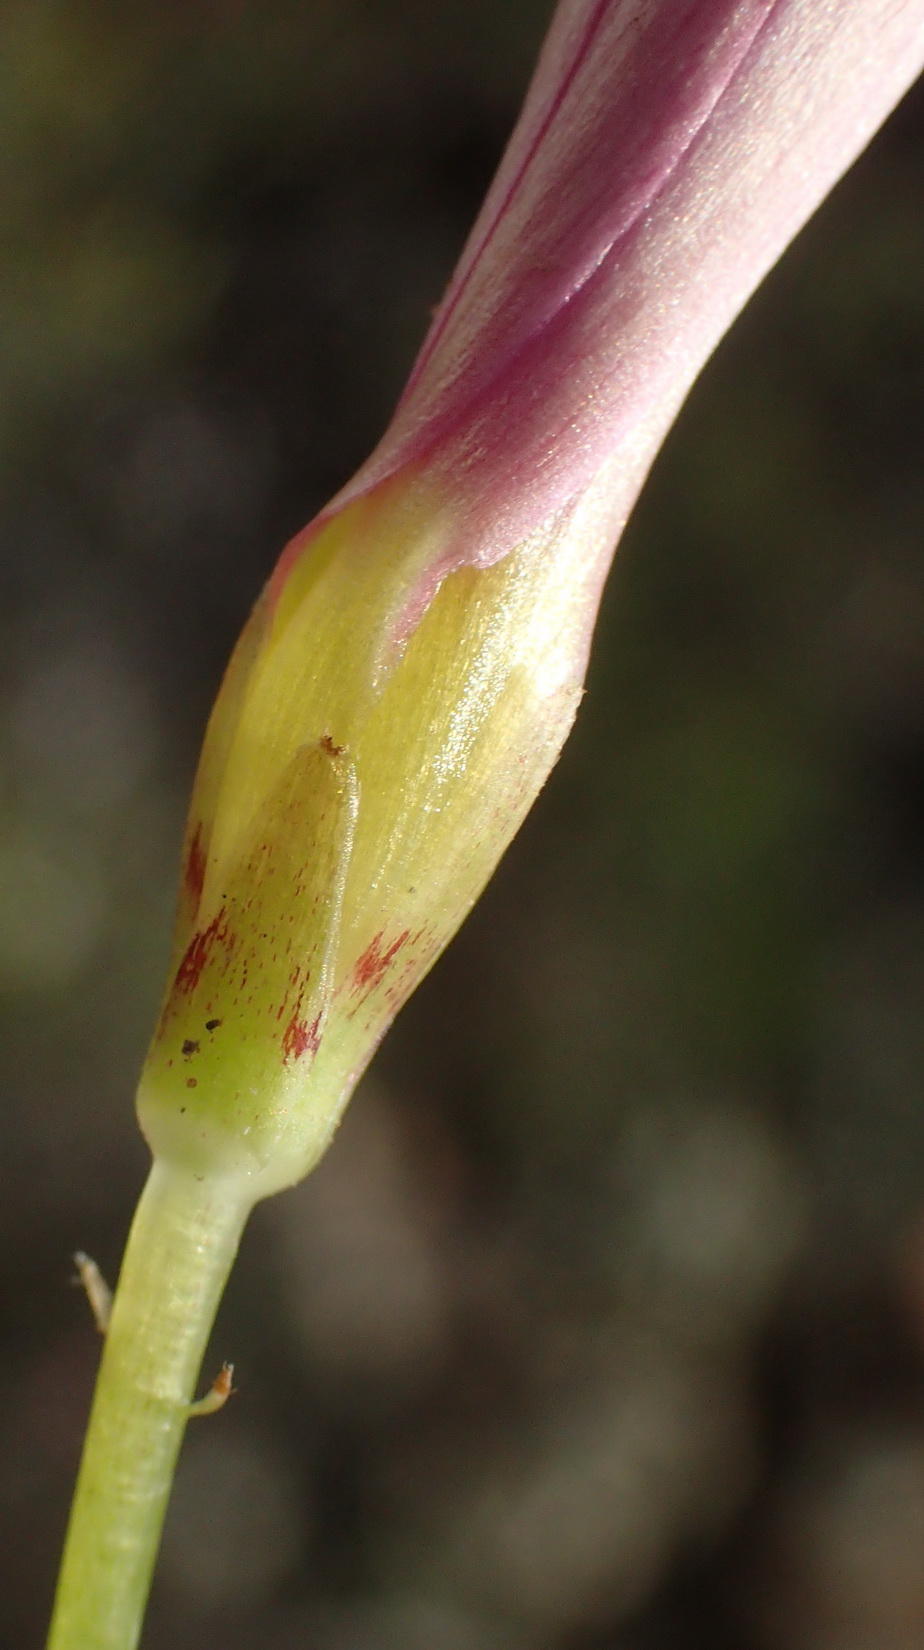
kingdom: Plantae
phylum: Tracheophyta
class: Magnoliopsida
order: Oxalidales
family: Oxalidaceae
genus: Oxalis
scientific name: Oxalis depressa
